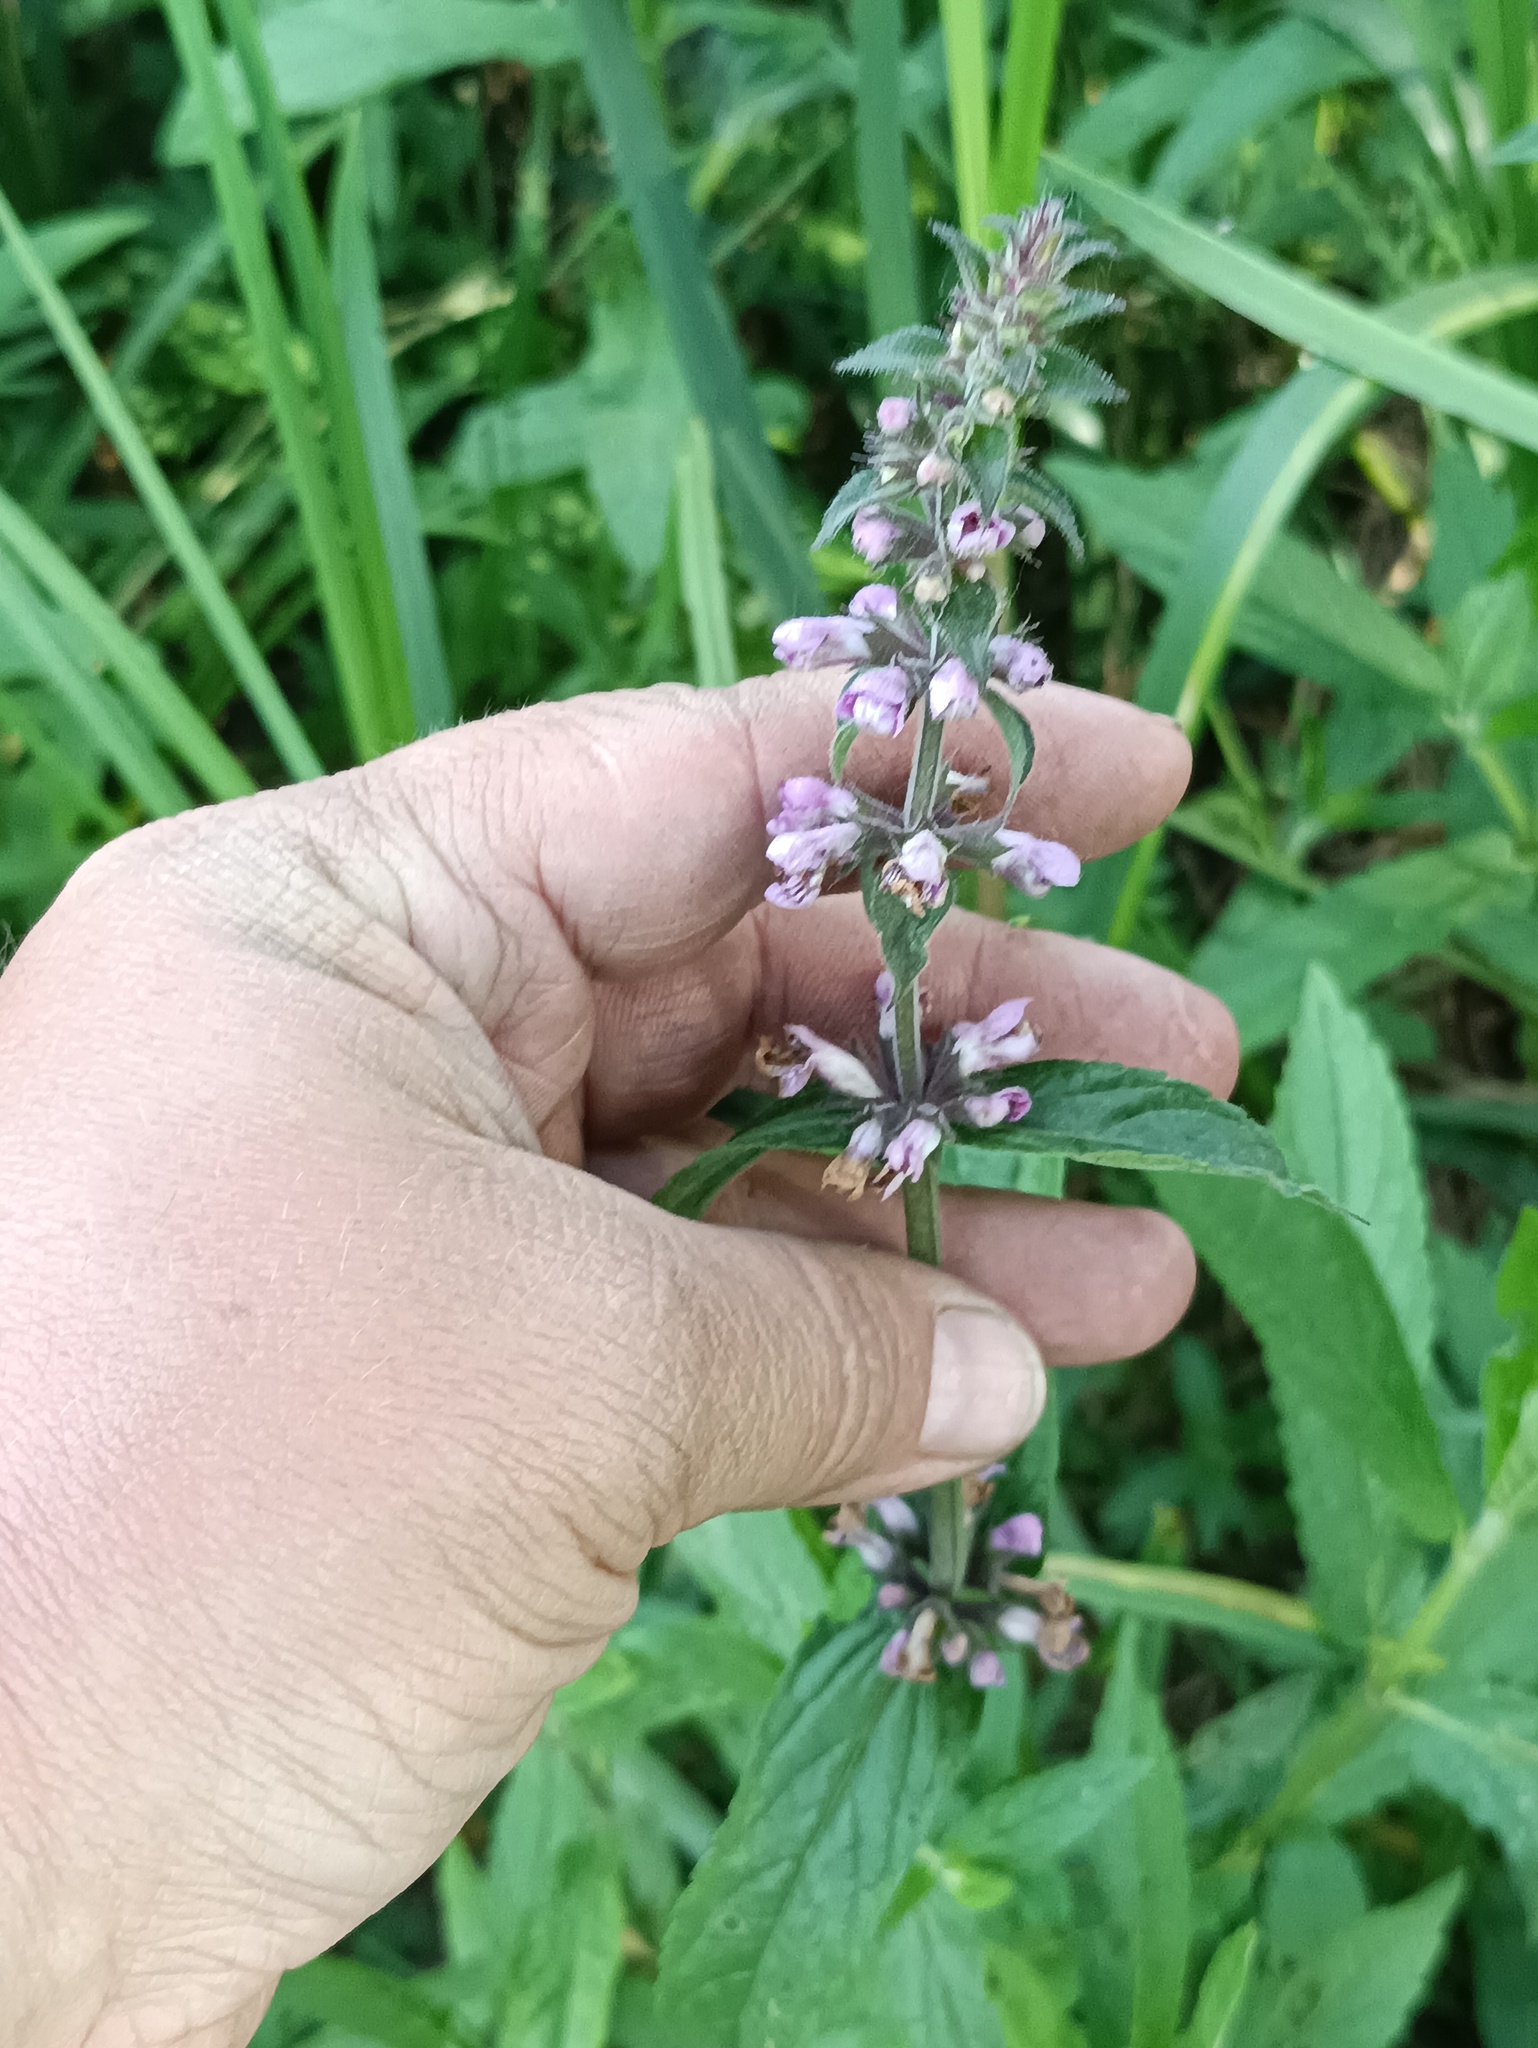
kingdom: Plantae
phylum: Tracheophyta
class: Magnoliopsida
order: Lamiales
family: Lamiaceae
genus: Stachys
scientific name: Stachys palustris
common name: Marsh woundwort
